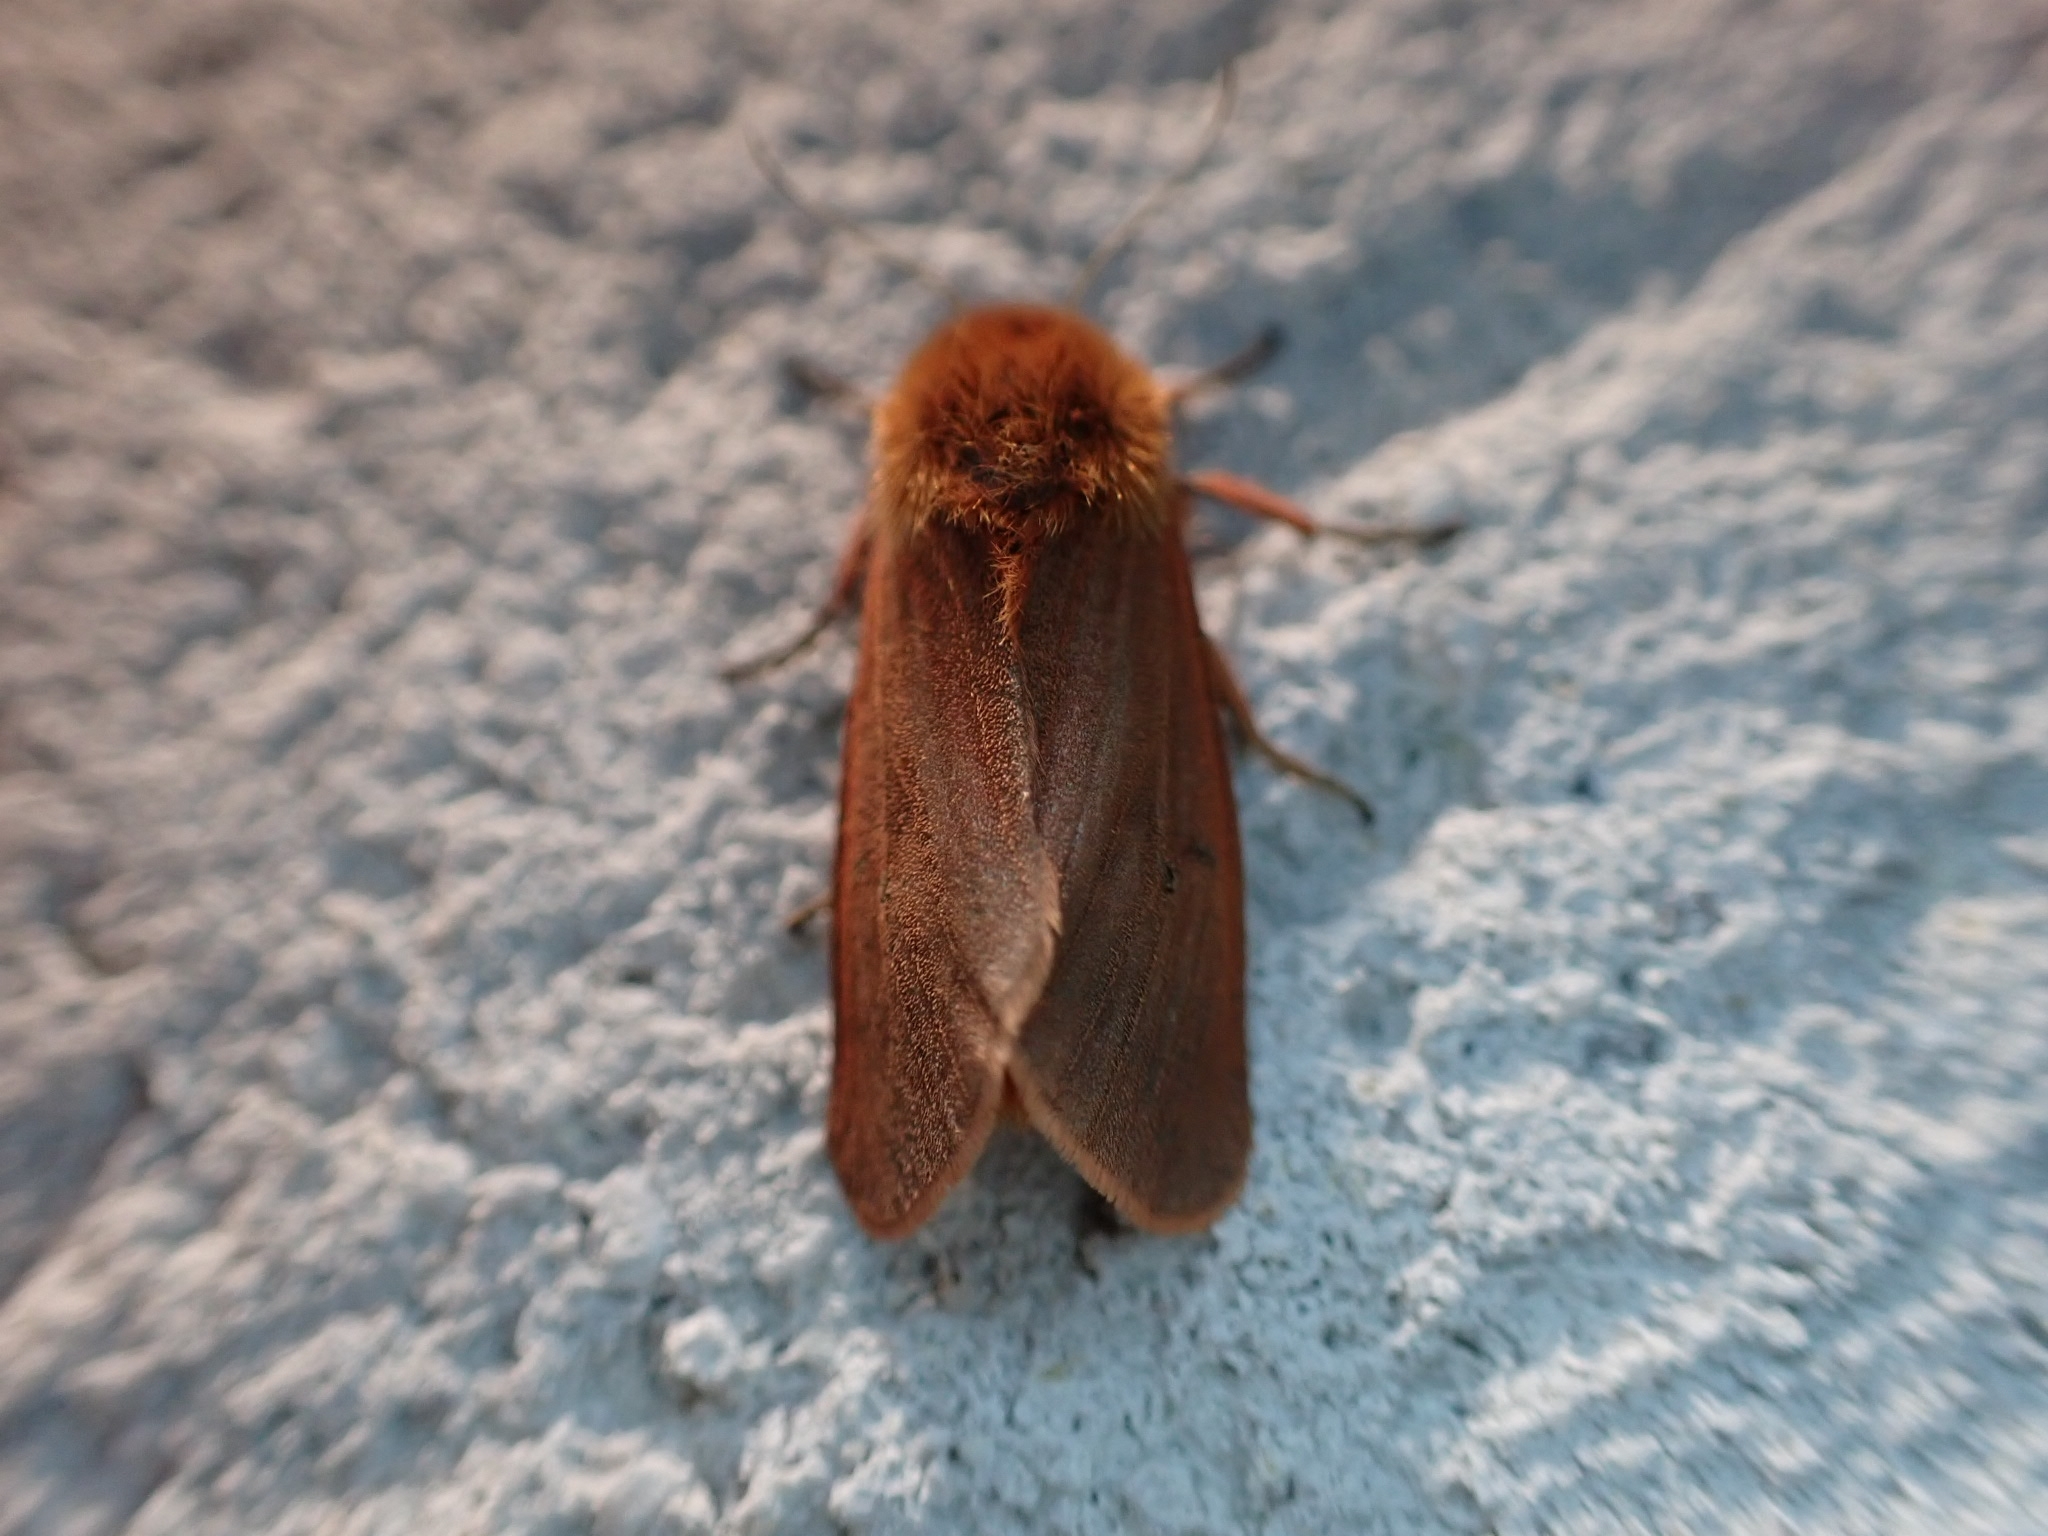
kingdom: Animalia
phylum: Arthropoda
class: Insecta
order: Lepidoptera
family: Erebidae
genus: Phragmatobia
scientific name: Phragmatobia fuliginosa
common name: Ruby tiger
